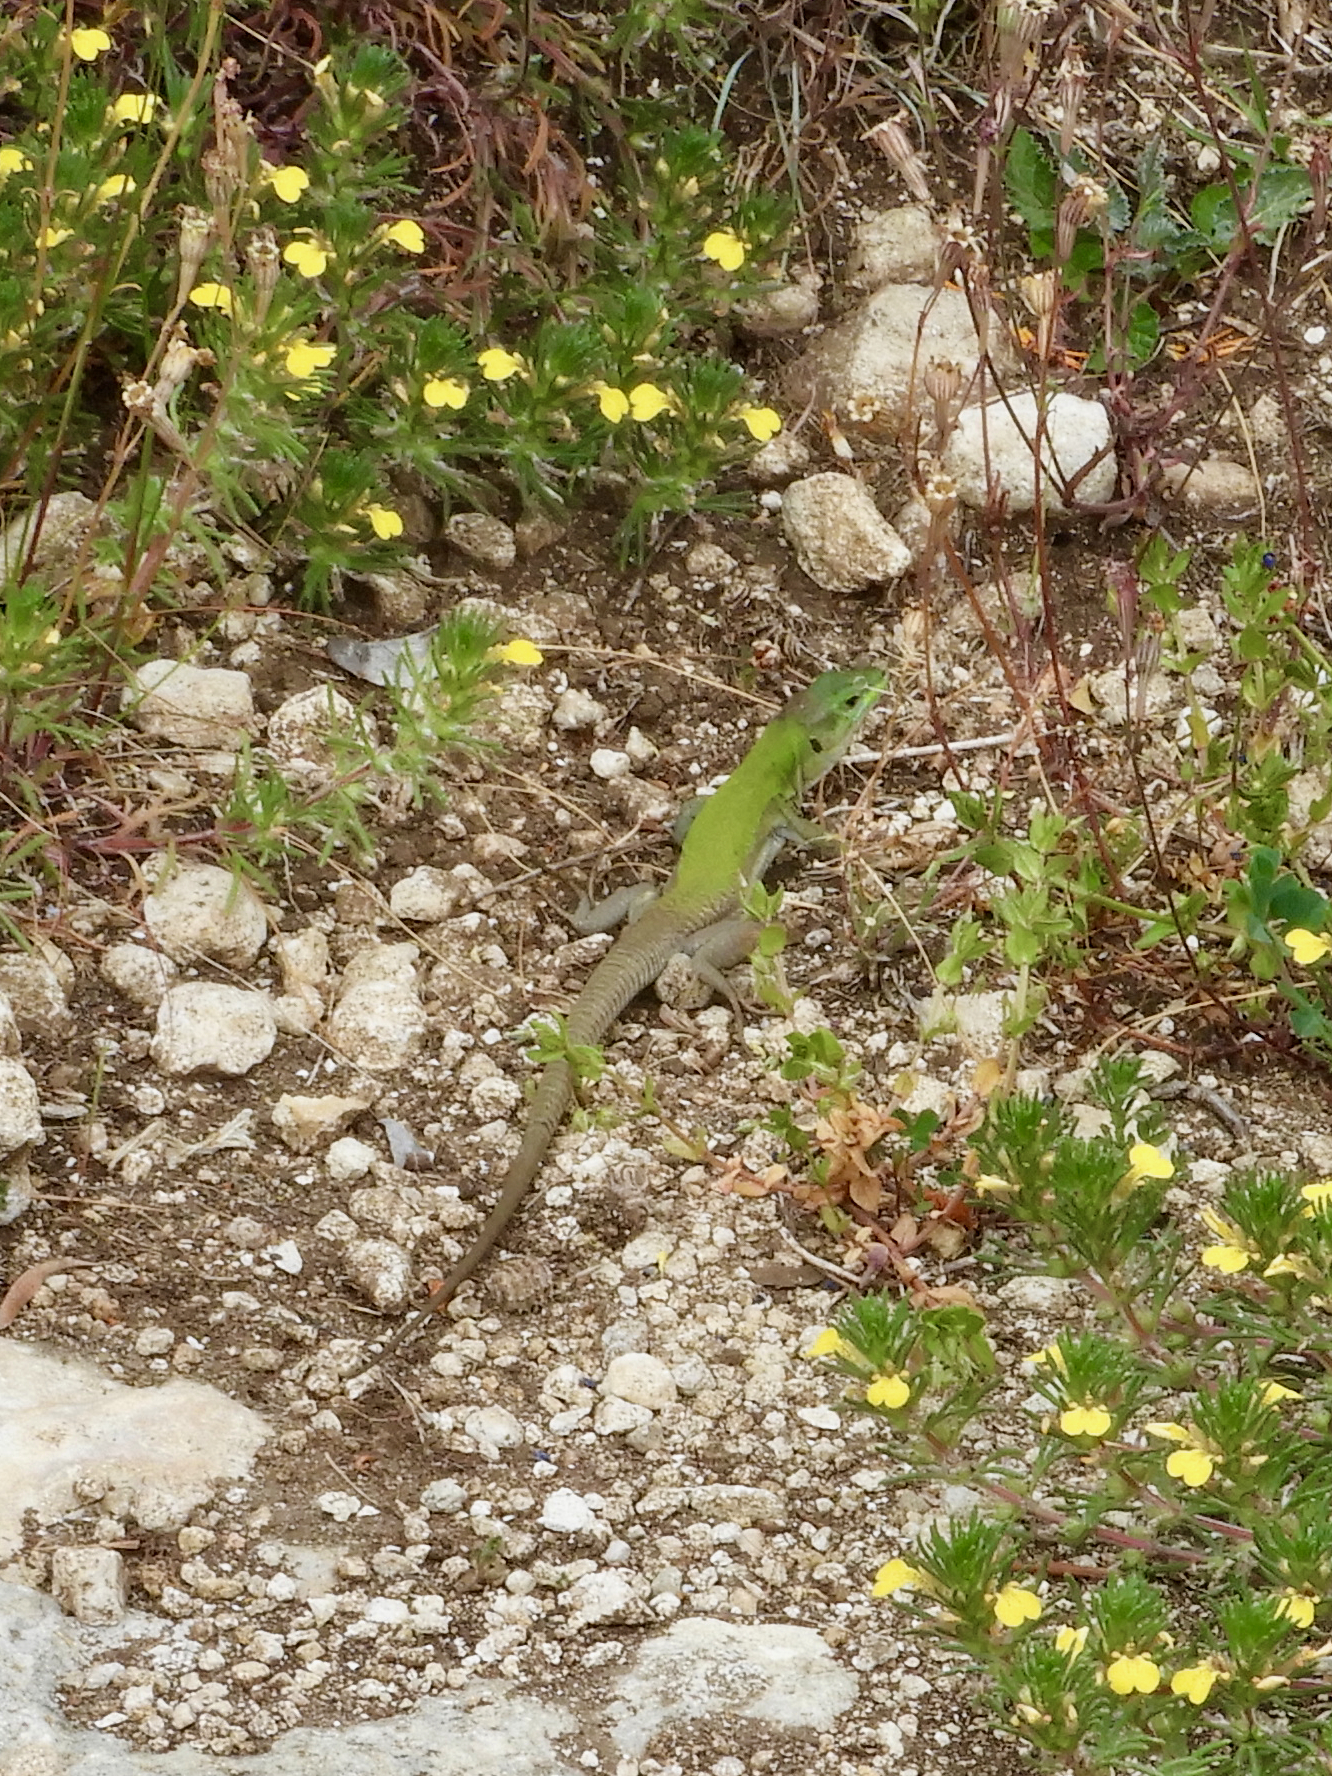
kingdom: Animalia
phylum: Chordata
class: Squamata
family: Lacertidae
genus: Podarcis
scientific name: Podarcis siculus
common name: Italian wall lizard
